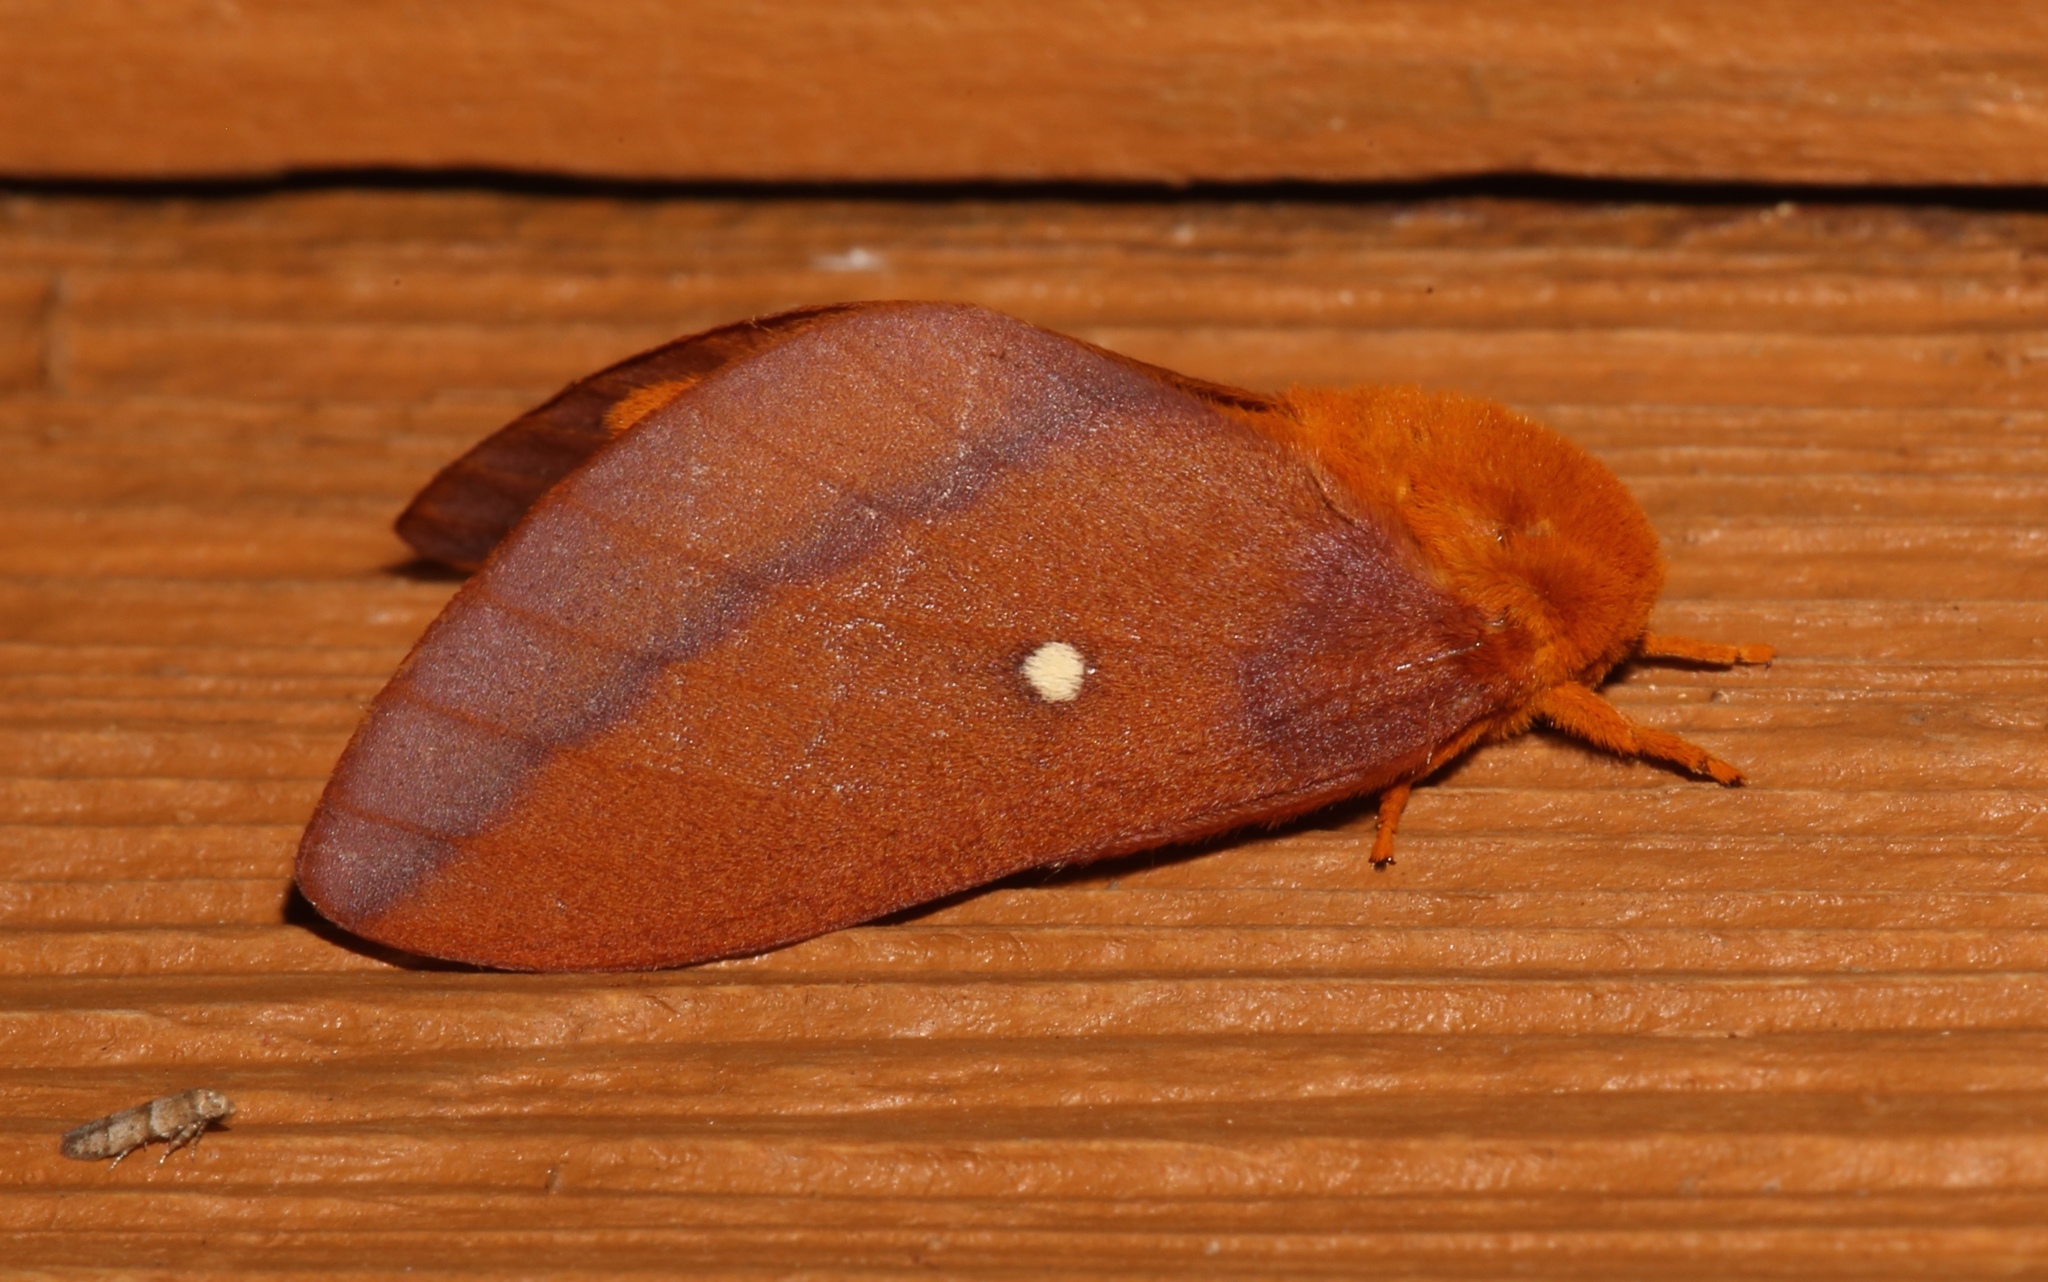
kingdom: Animalia
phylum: Arthropoda
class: Insecta
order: Lepidoptera
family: Saturniidae
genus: Anisota
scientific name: Anisota virginiensis
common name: Pink striped oakworm moth
